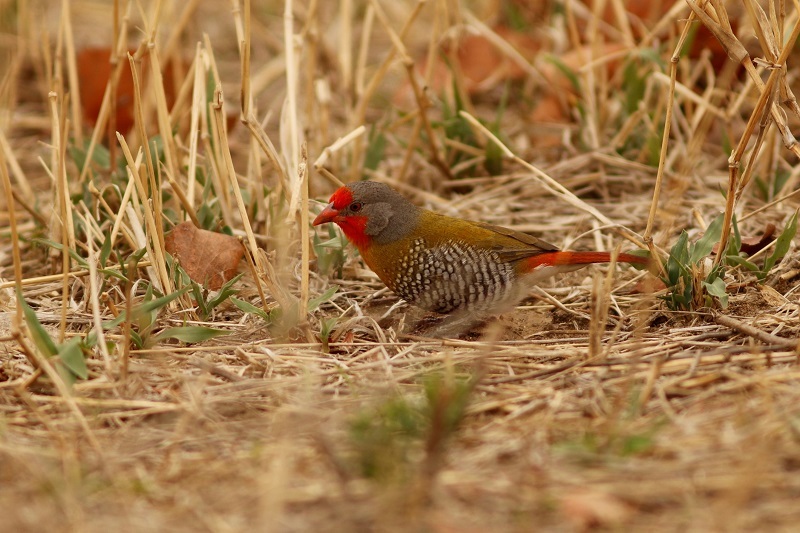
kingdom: Animalia
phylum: Chordata
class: Aves
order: Passeriformes
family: Estrildidae
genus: Pytilia
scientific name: Pytilia melba
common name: Green-winged pytilia
